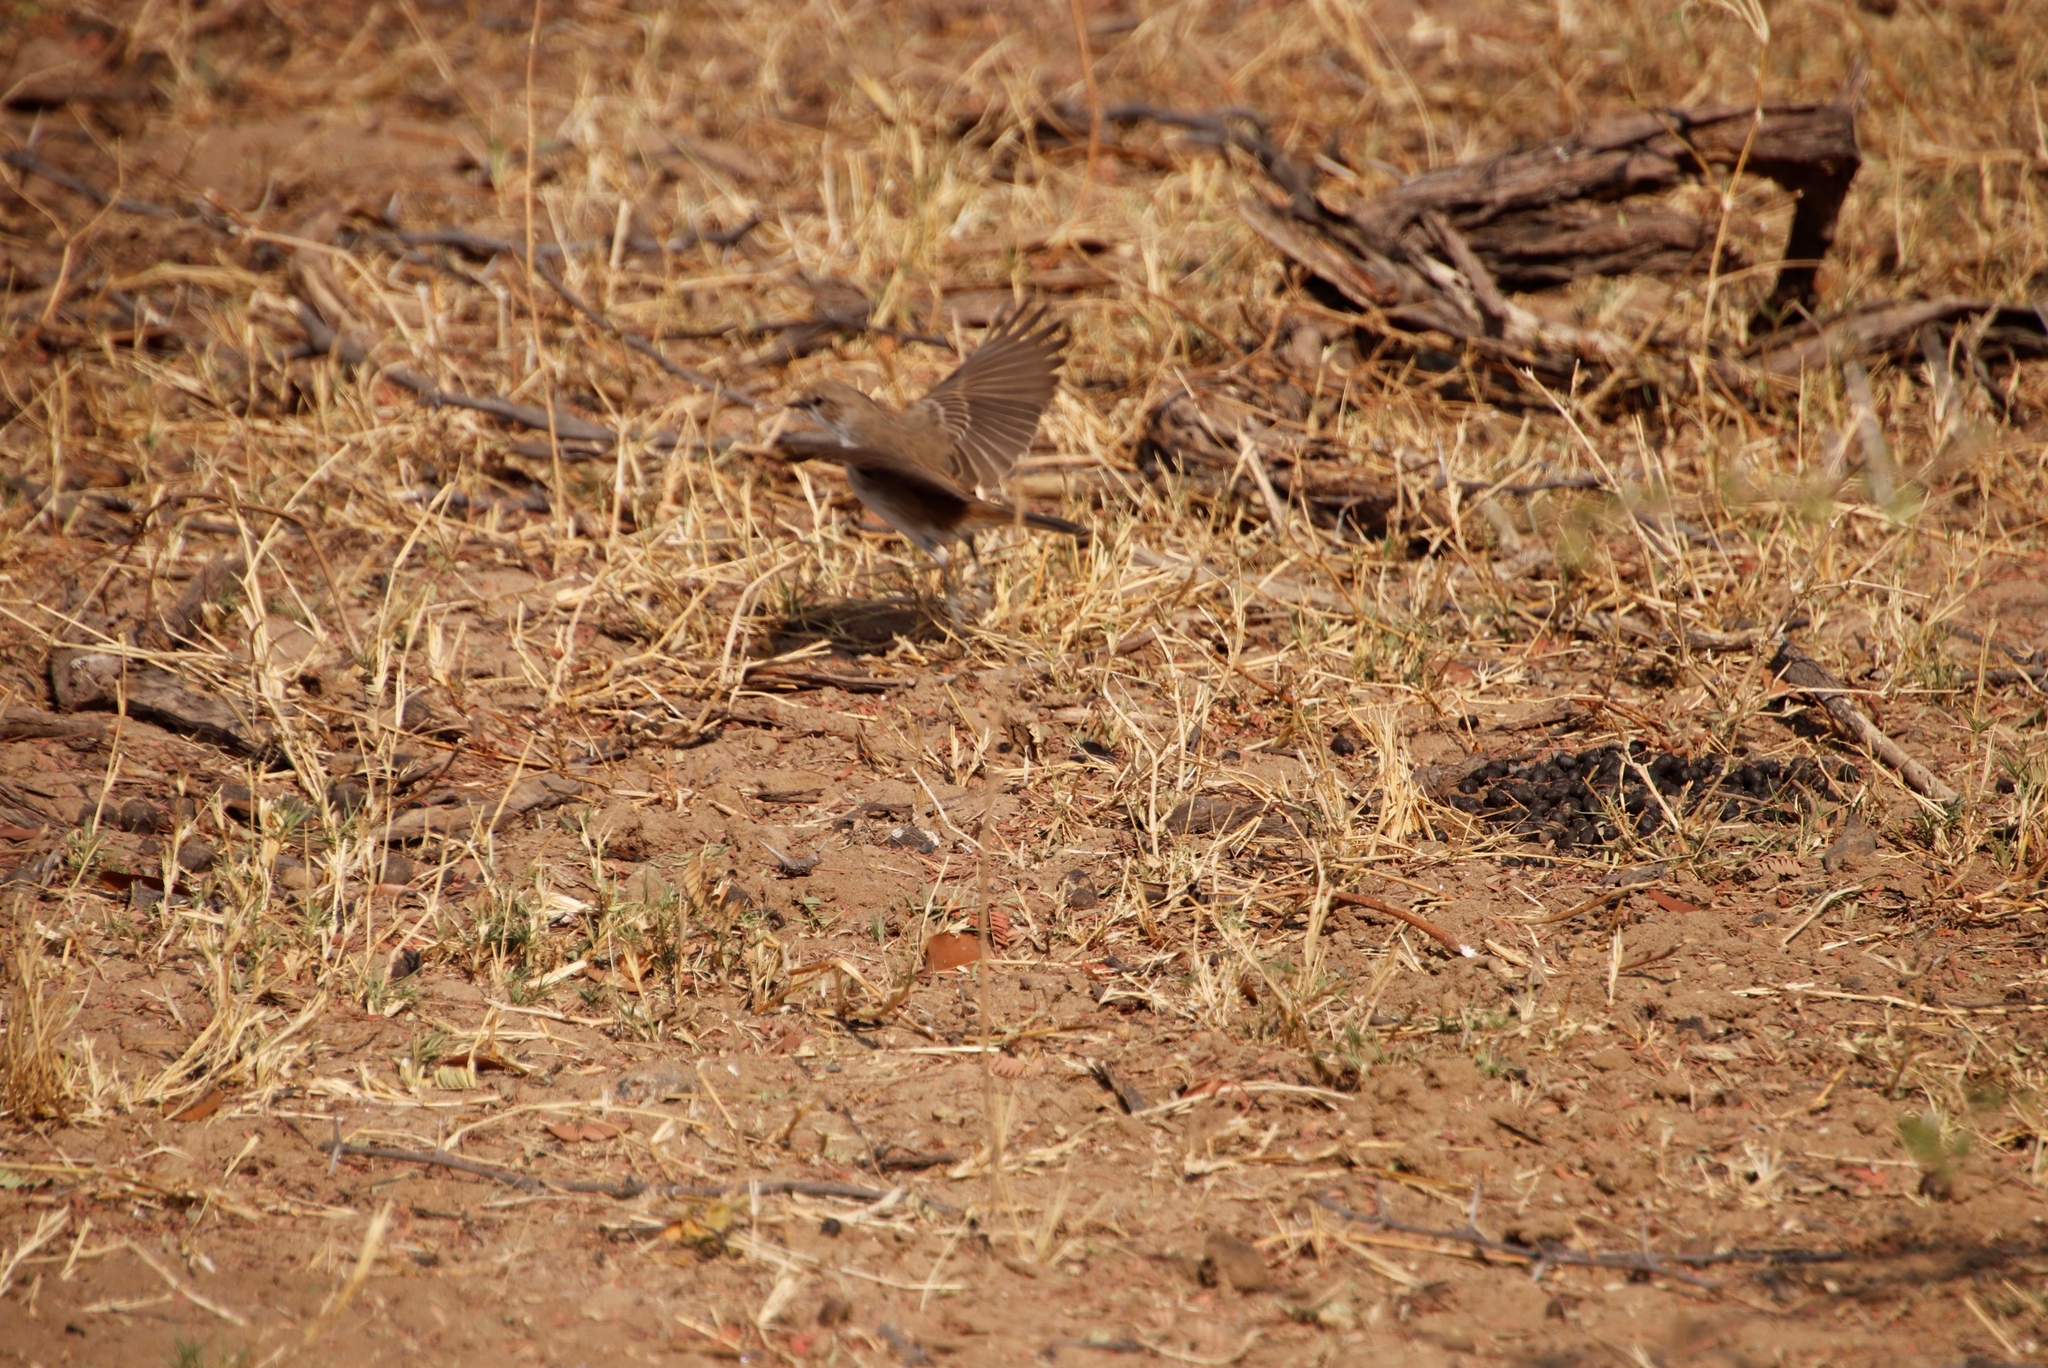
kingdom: Animalia
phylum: Chordata
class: Aves
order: Passeriformes
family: Muscicapidae
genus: Bradornis
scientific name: Bradornis mariquensis
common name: Marico flycatcher
